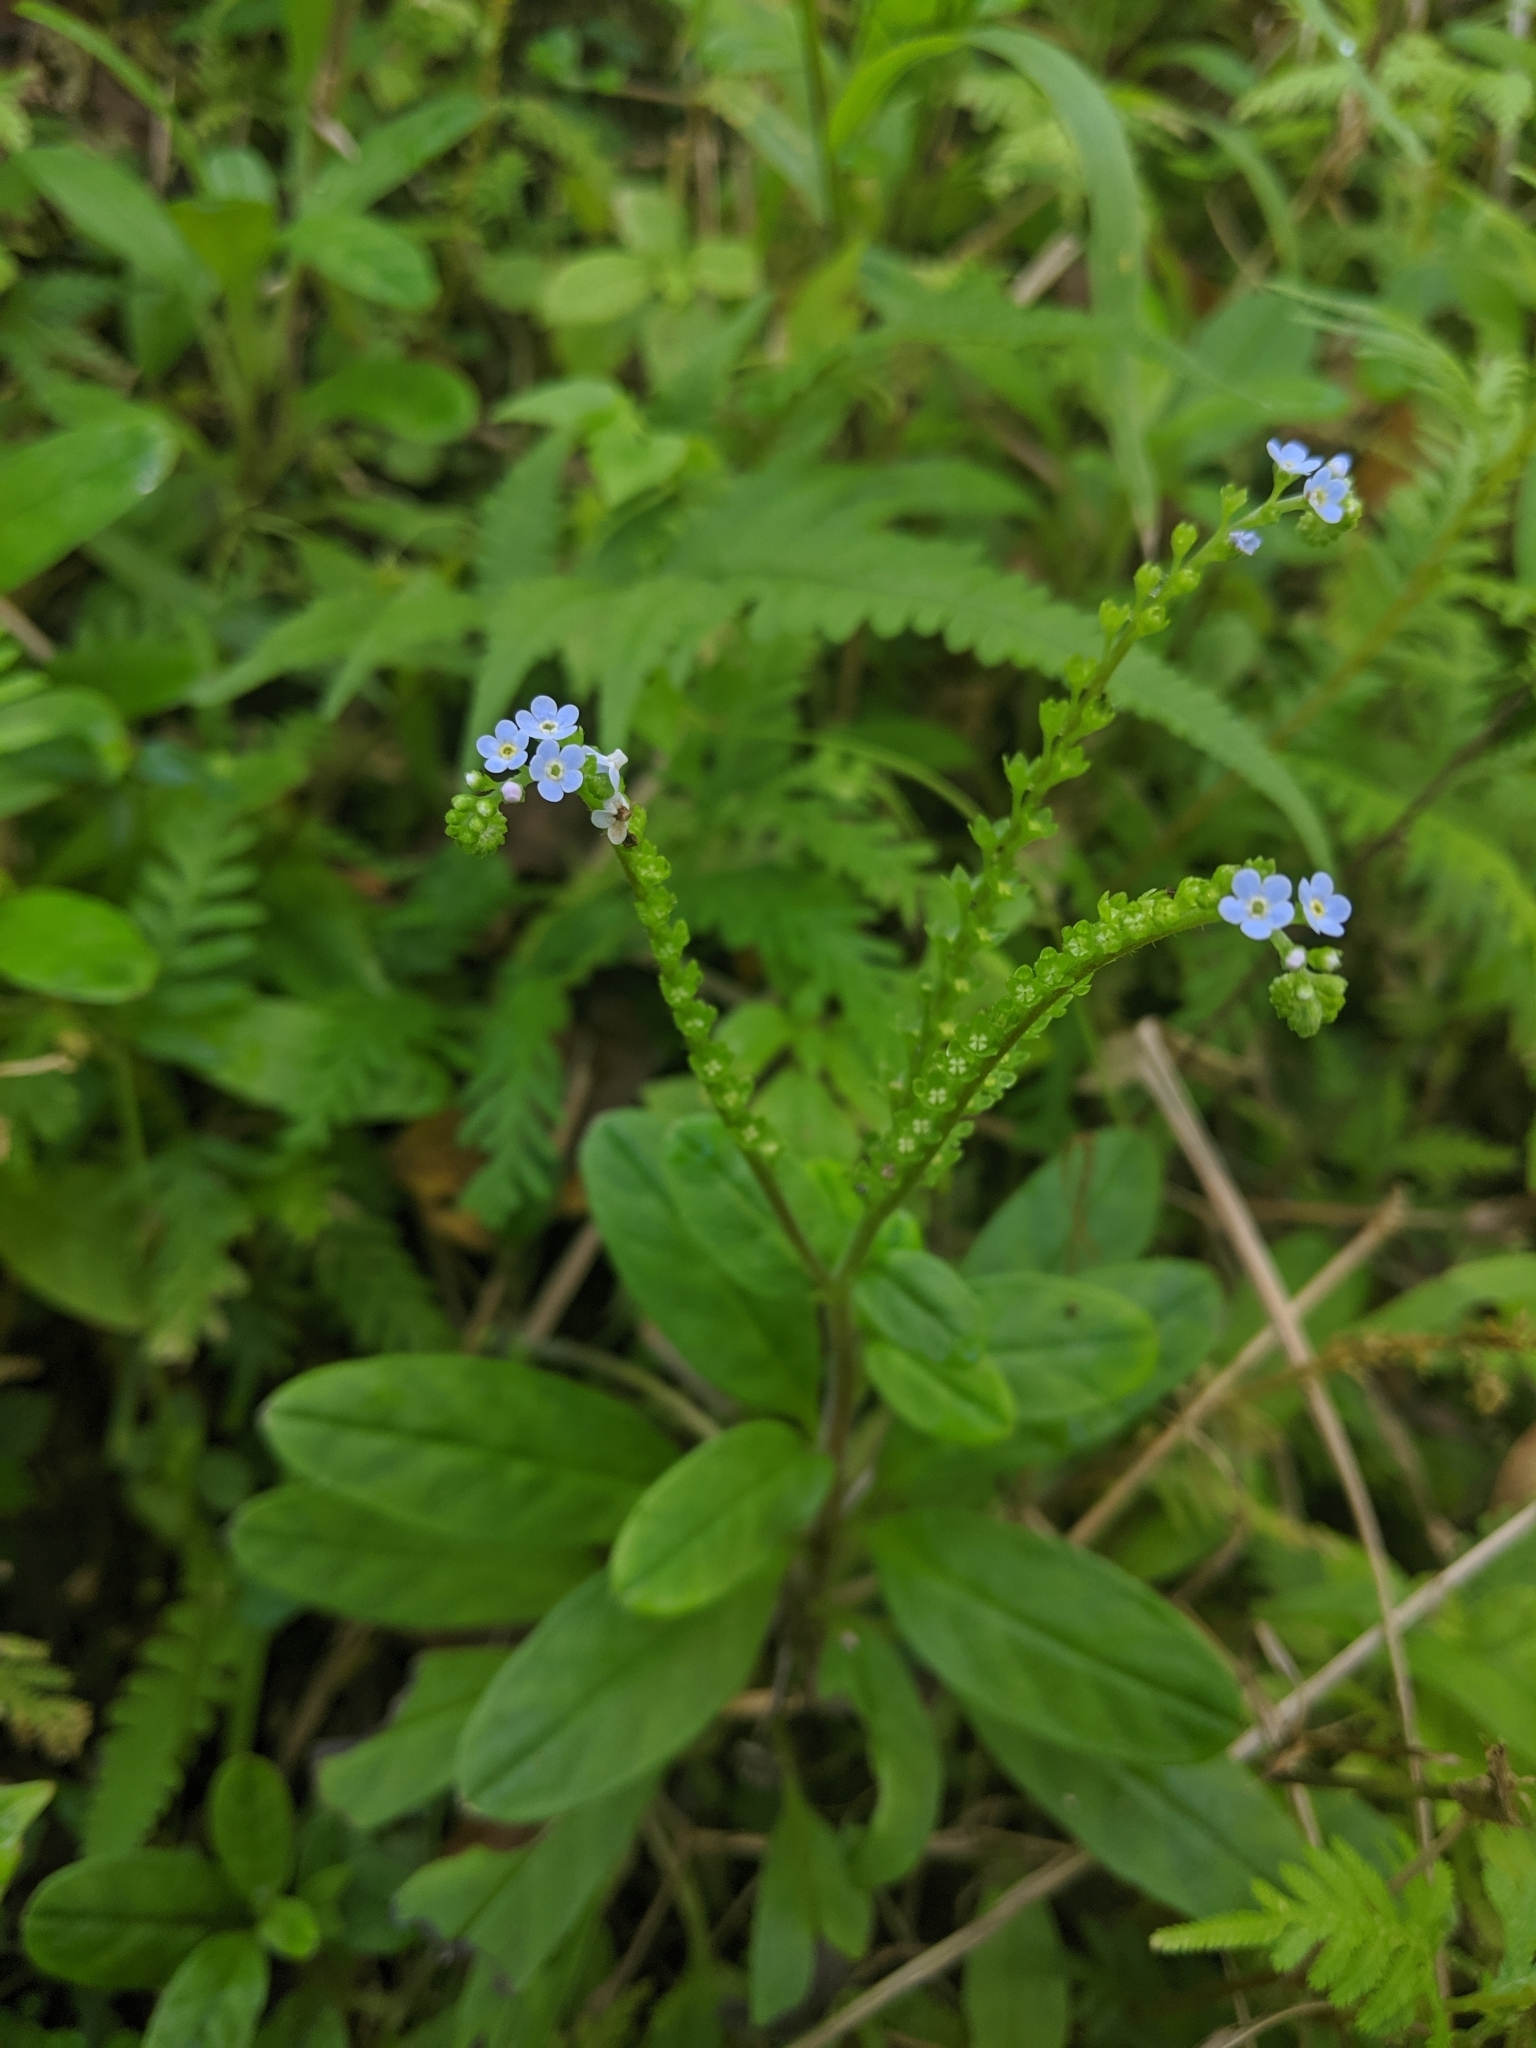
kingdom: Plantae
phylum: Tracheophyta
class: Magnoliopsida
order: Boraginales
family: Boraginaceae
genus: Trigonotis
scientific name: Trigonotis formosana
